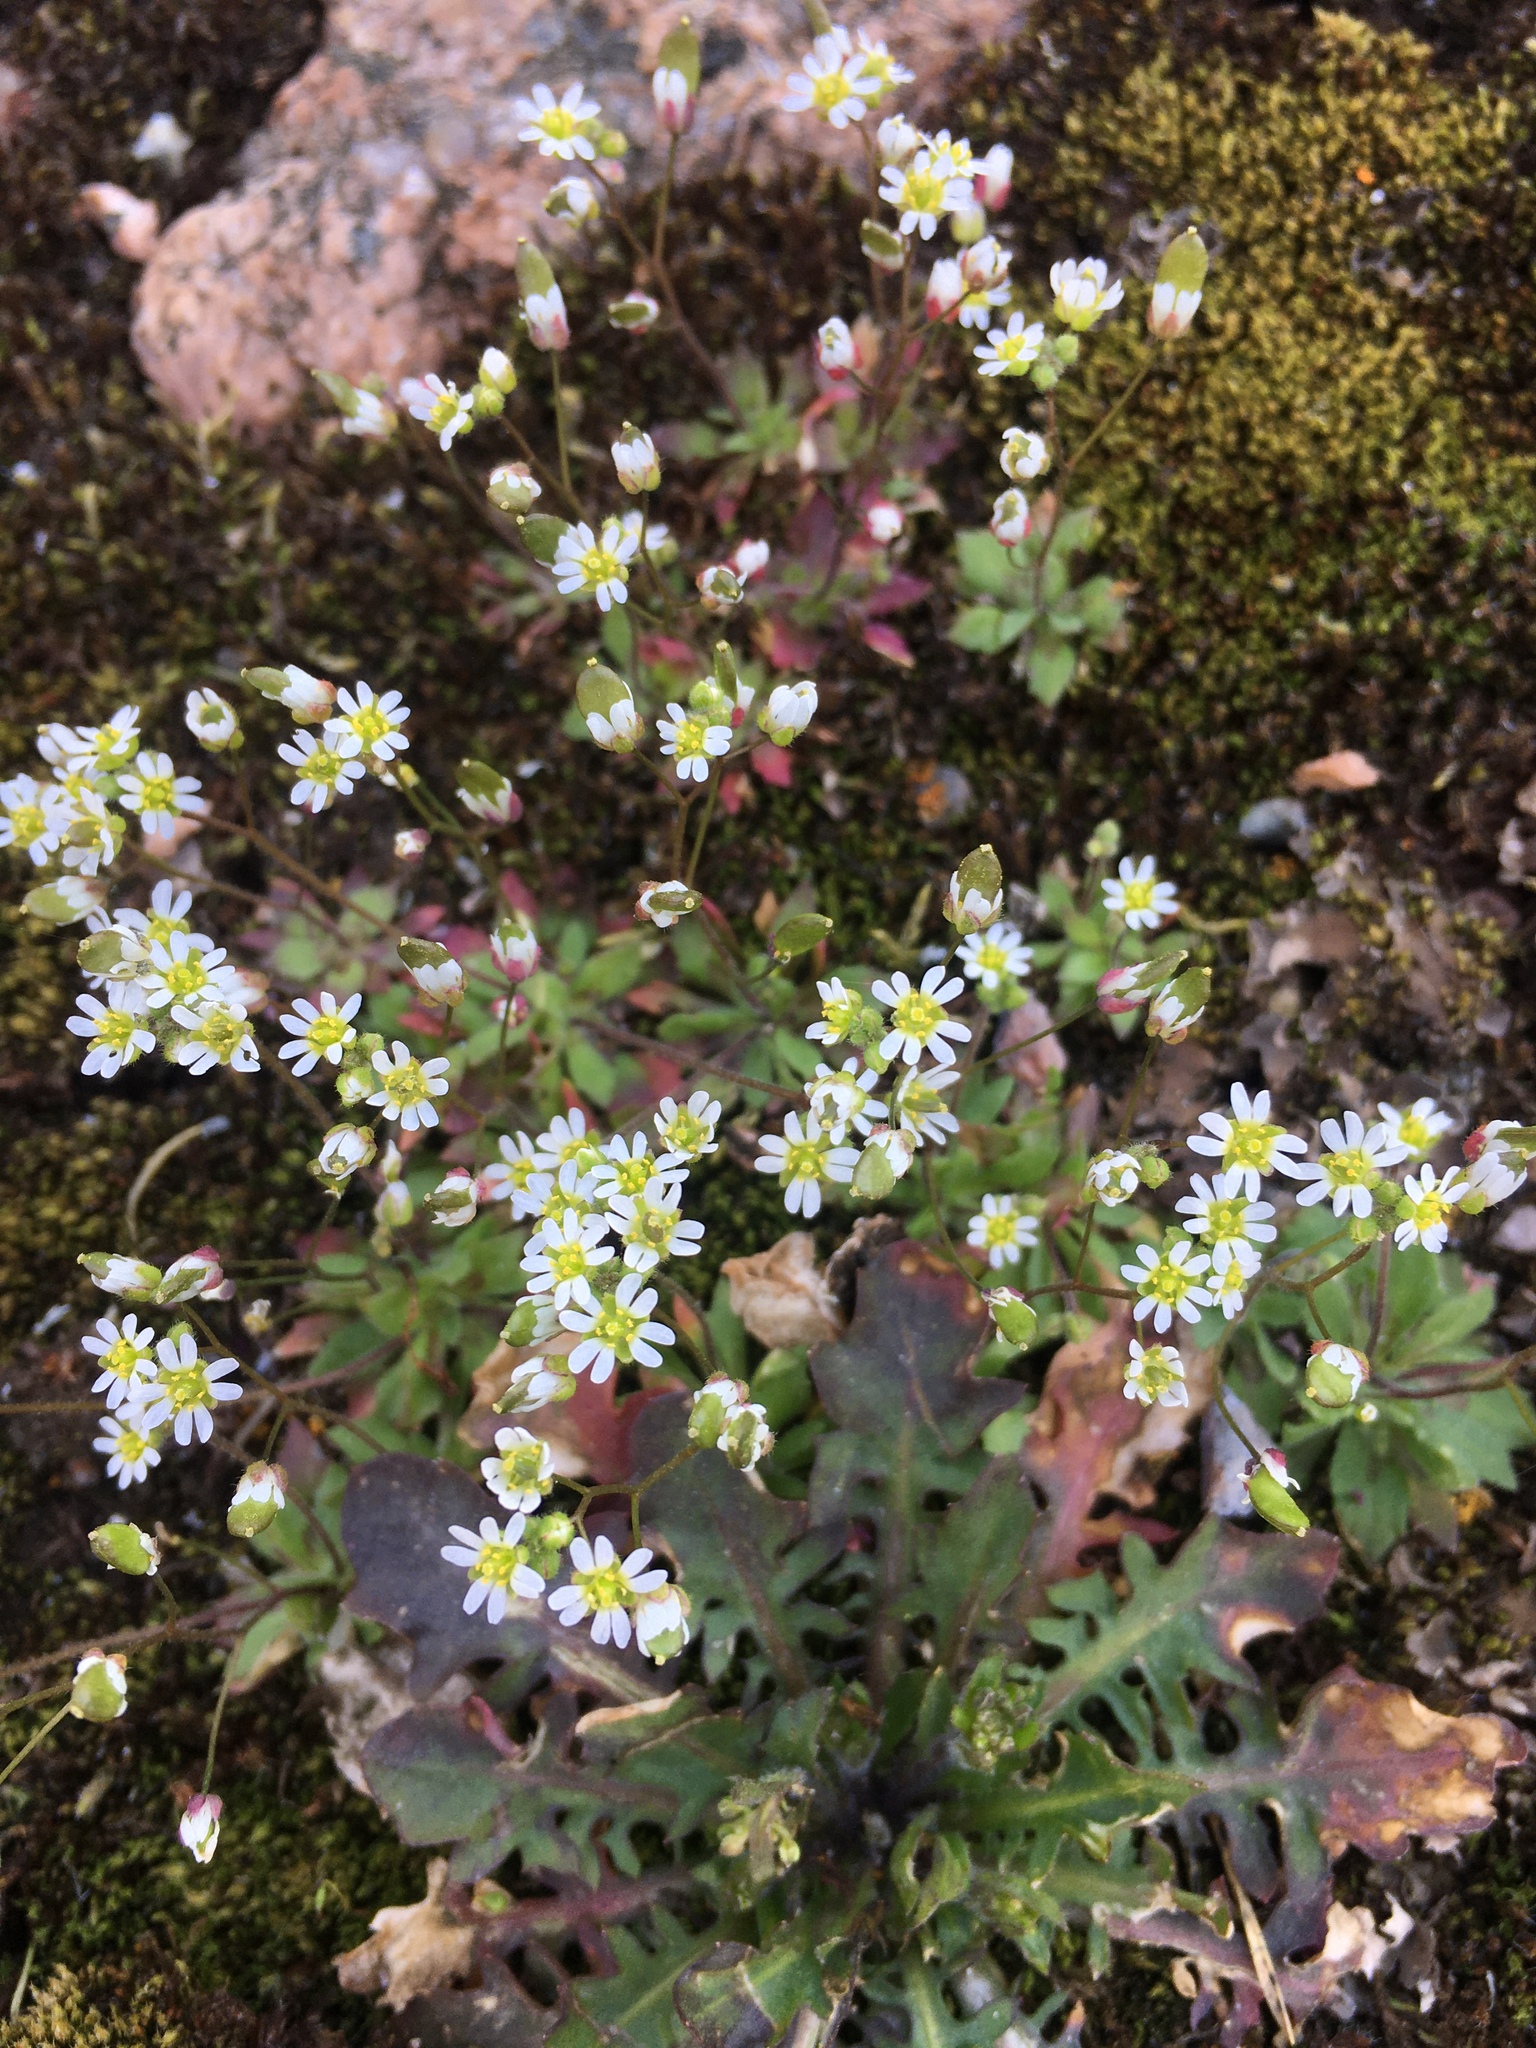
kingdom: Plantae
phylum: Tracheophyta
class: Magnoliopsida
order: Brassicales
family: Brassicaceae
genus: Draba
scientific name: Draba verna
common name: Spring draba
